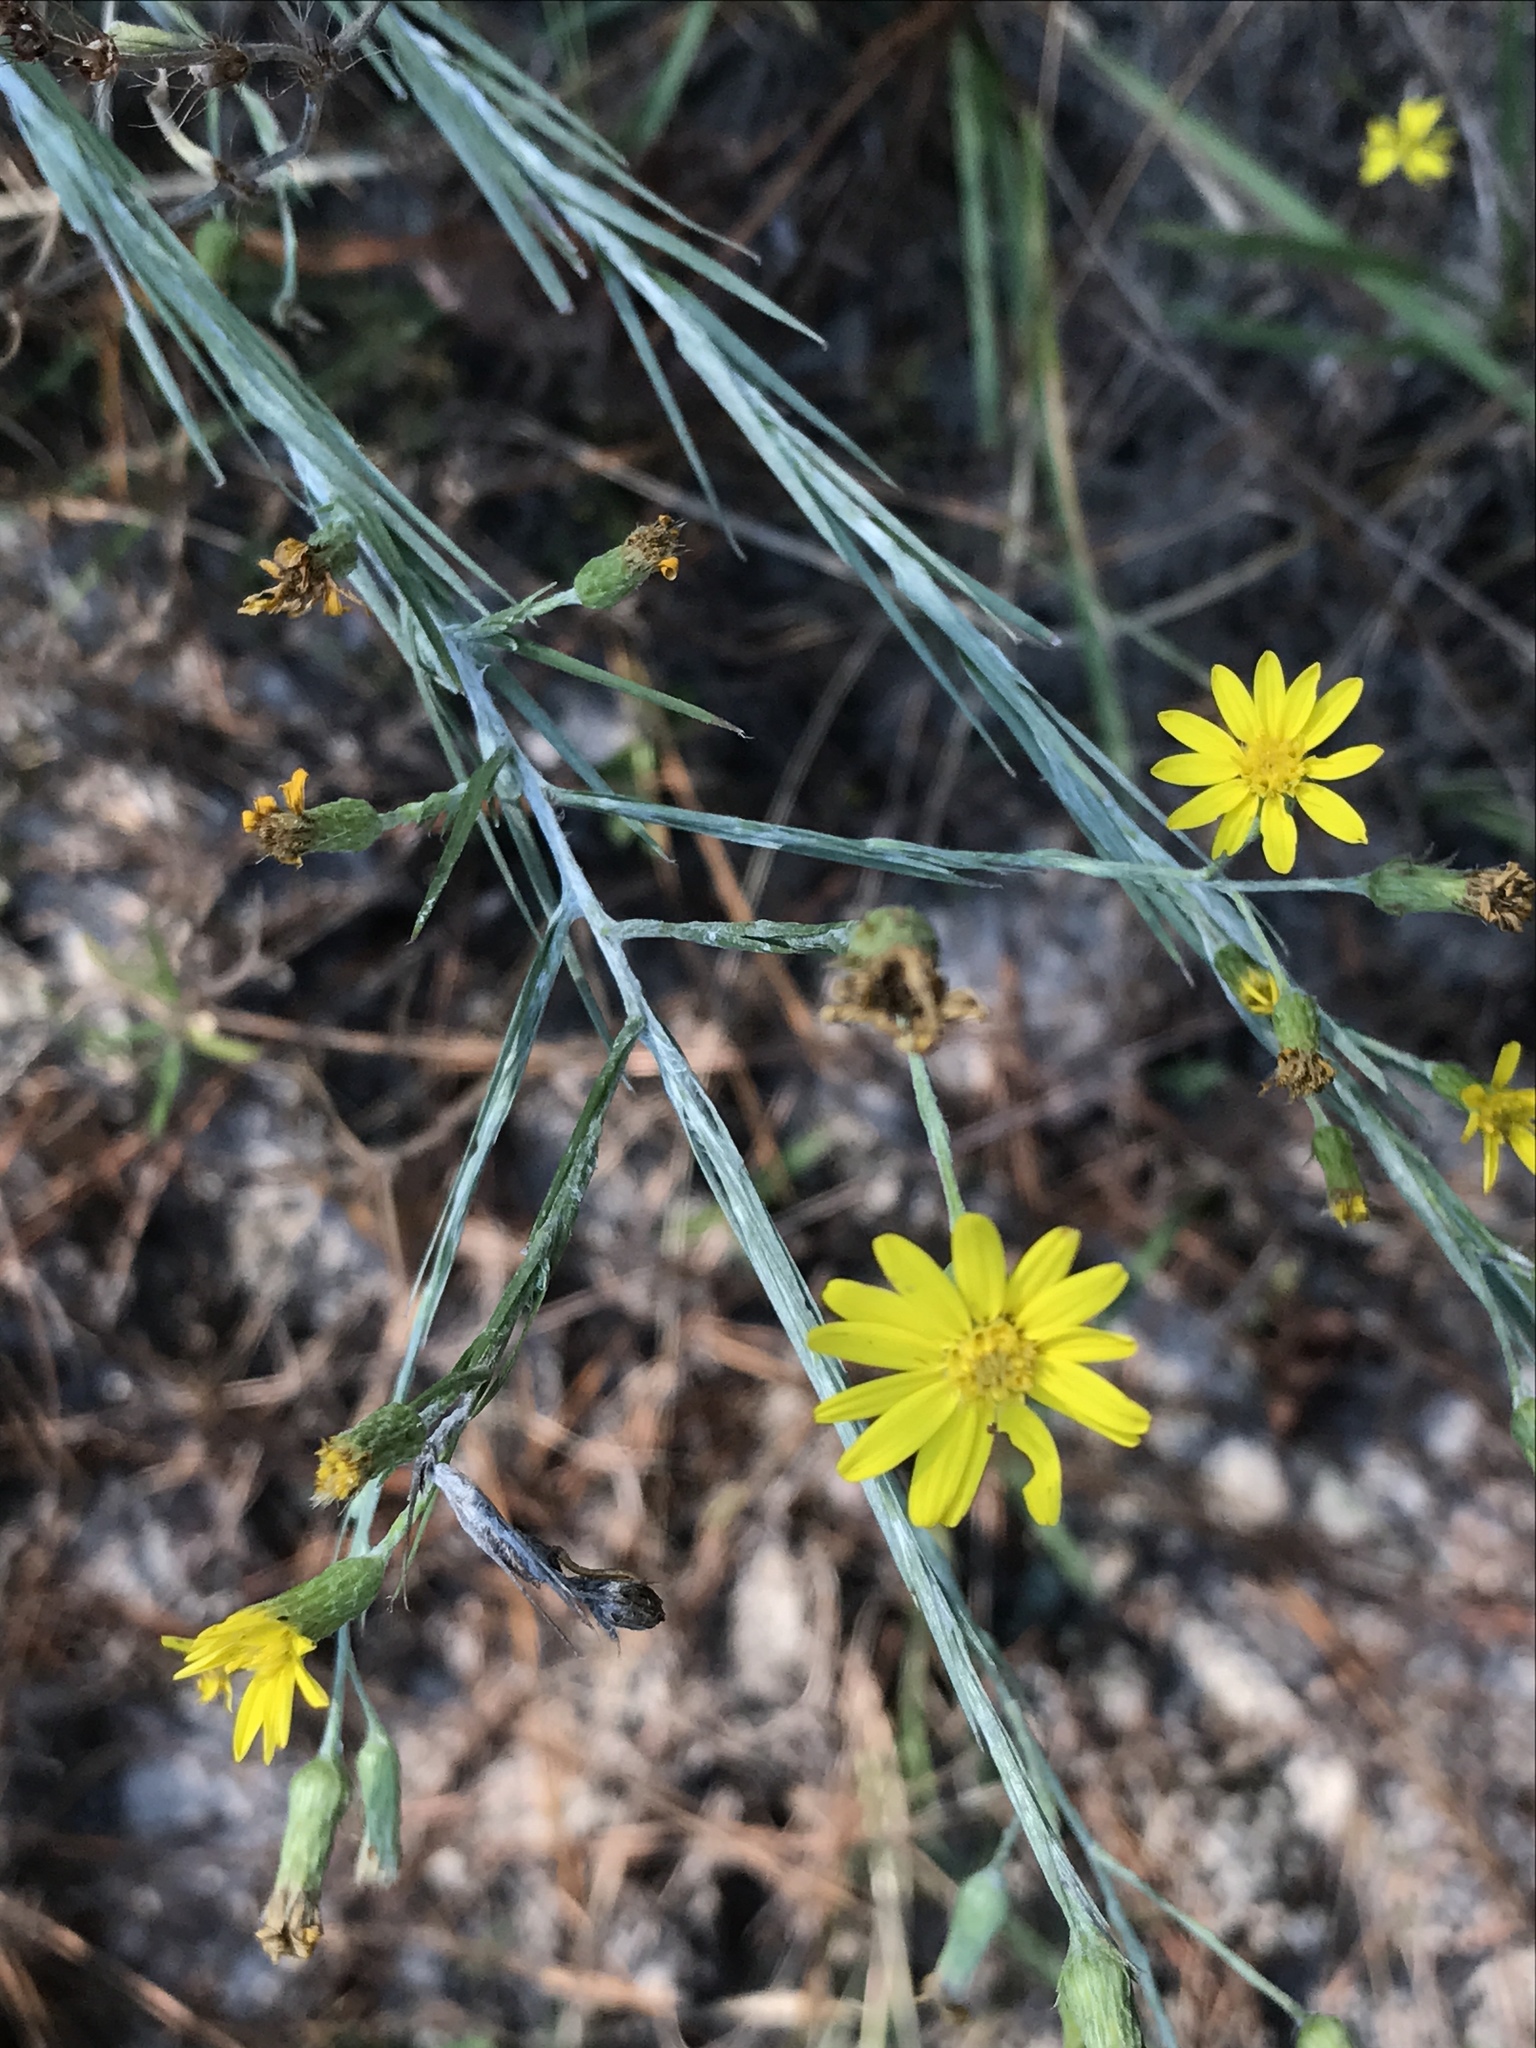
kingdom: Plantae
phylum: Tracheophyta
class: Magnoliopsida
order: Asterales
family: Asteraceae
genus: Pityopsis
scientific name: Pityopsis graminifolia
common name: Grass-leaf golden-aster
